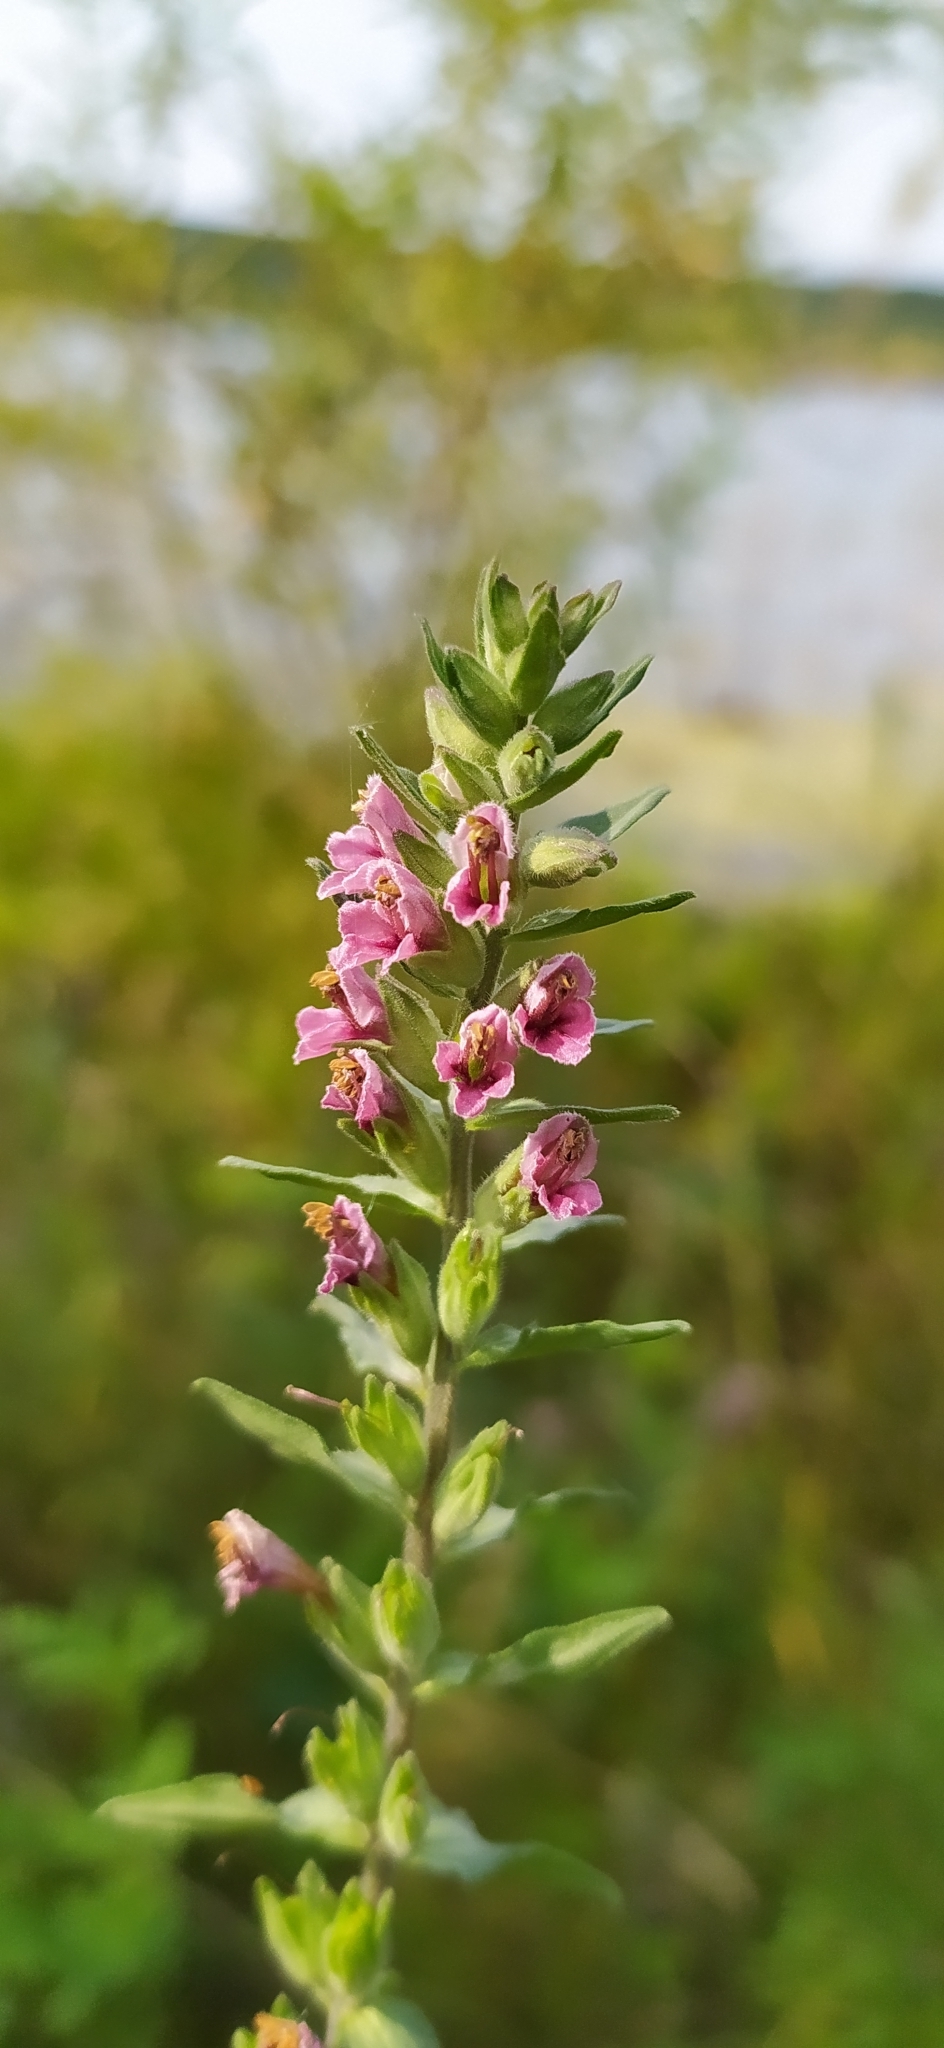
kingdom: Plantae
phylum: Tracheophyta
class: Magnoliopsida
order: Lamiales
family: Orobanchaceae
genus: Odontites
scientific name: Odontites vulgaris
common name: Broomrape
